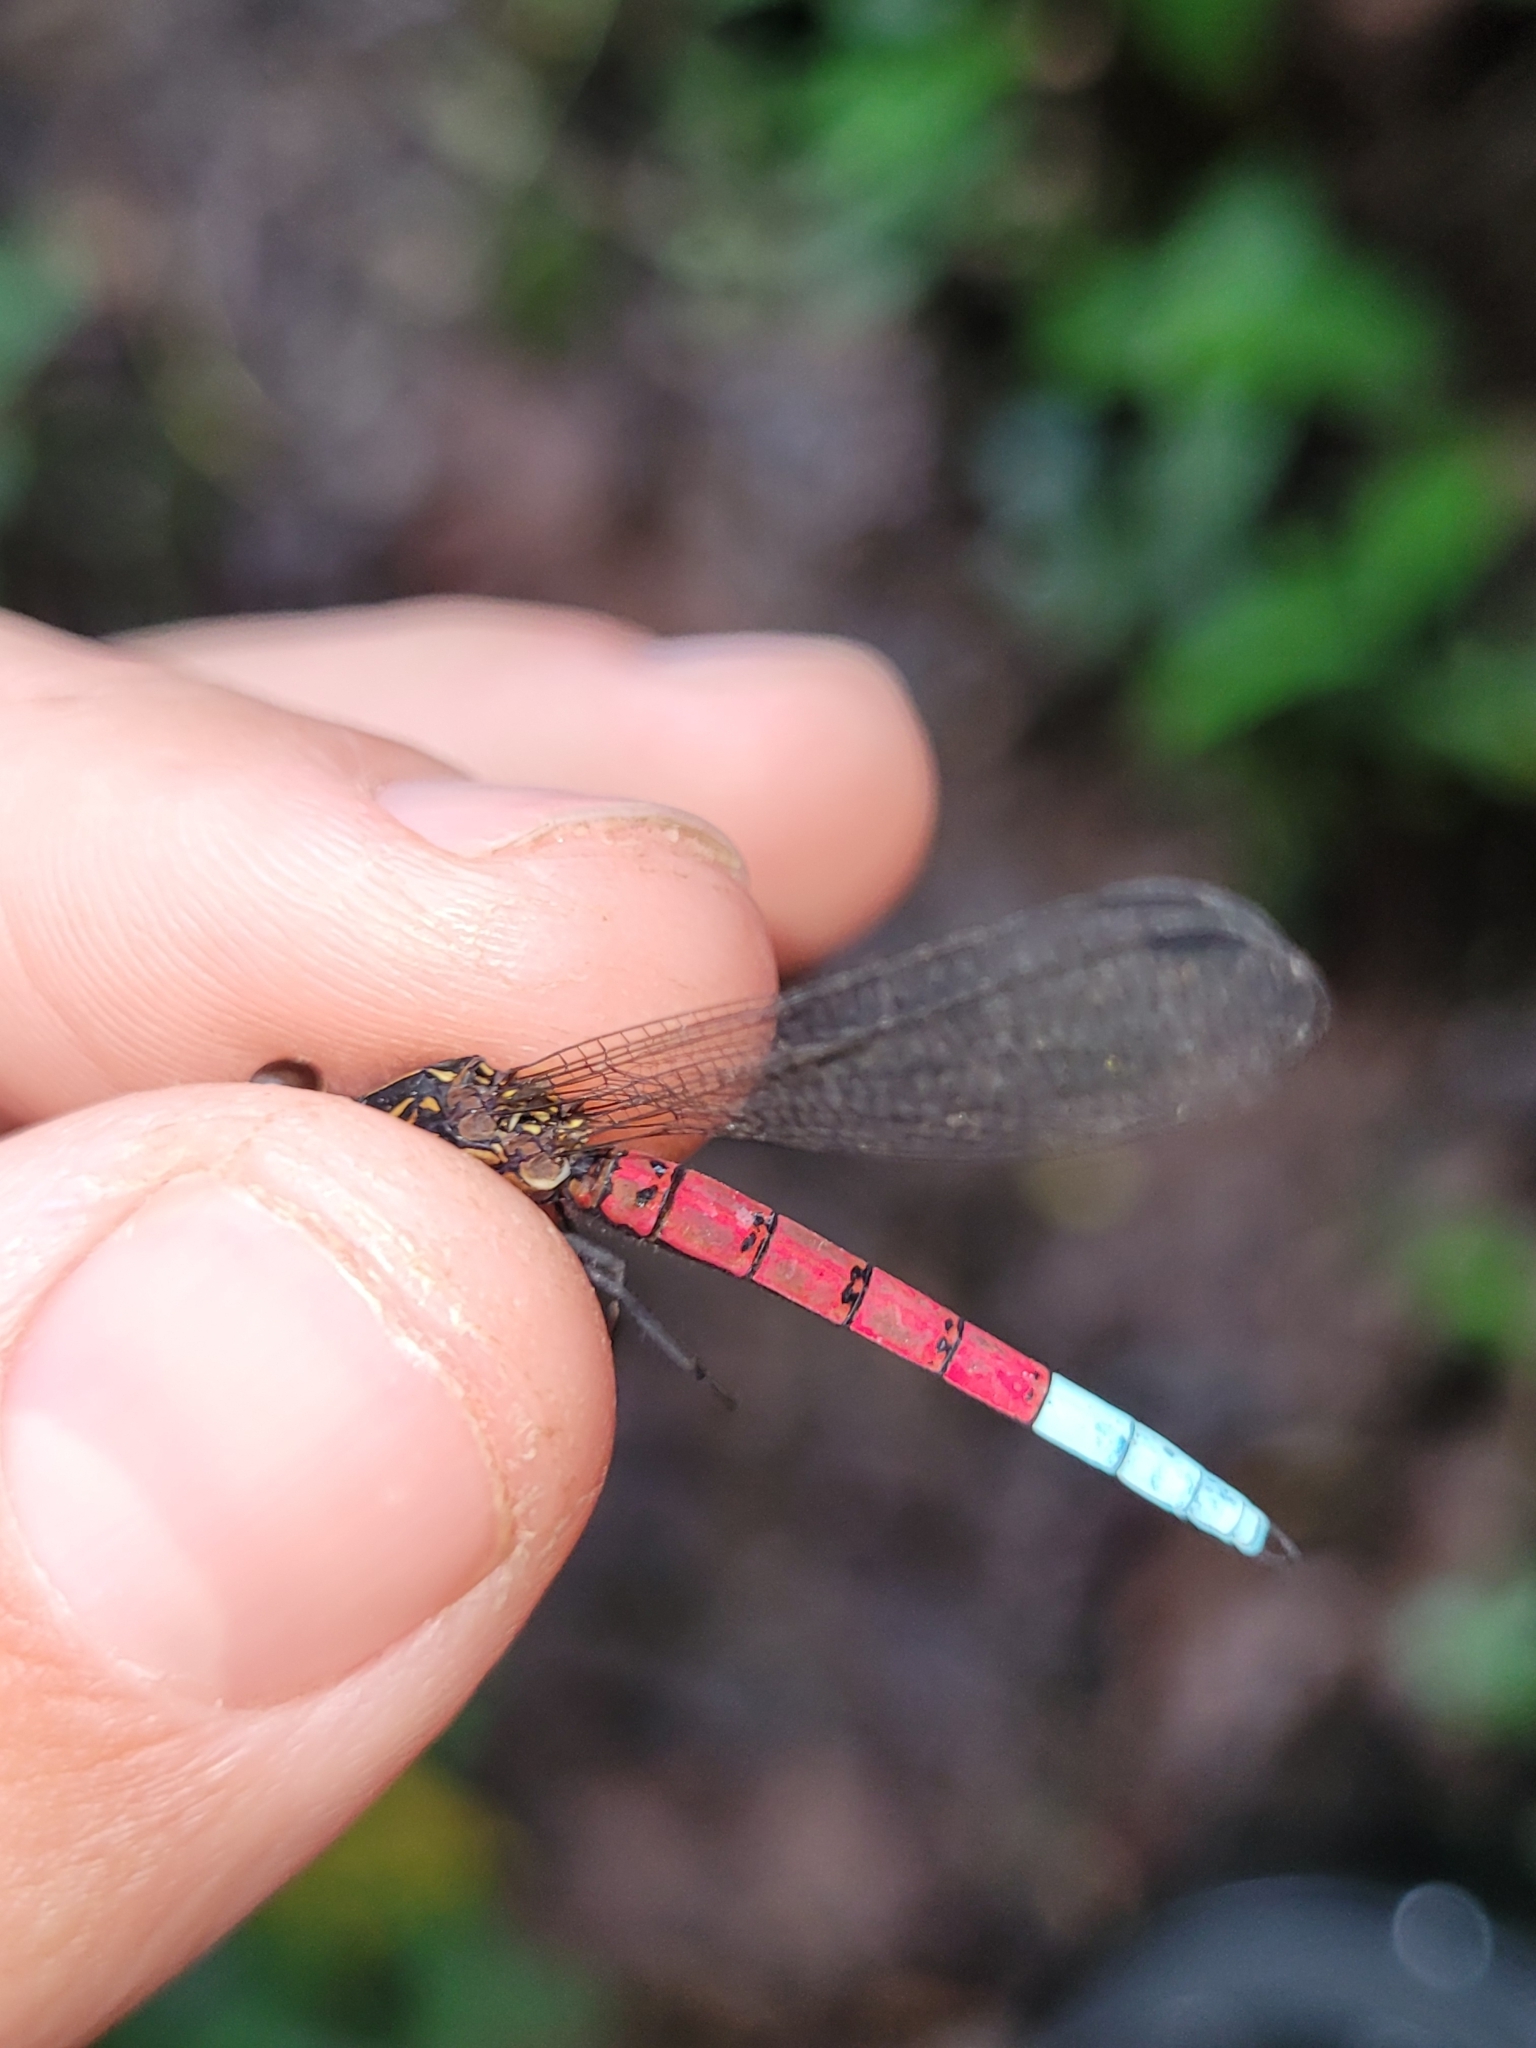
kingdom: Animalia
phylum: Arthropoda
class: Insecta
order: Odonata
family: Chlorocyphidae
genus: Chlorocypha
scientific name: Chlorocypha curta
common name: Blue-tipped jewel
